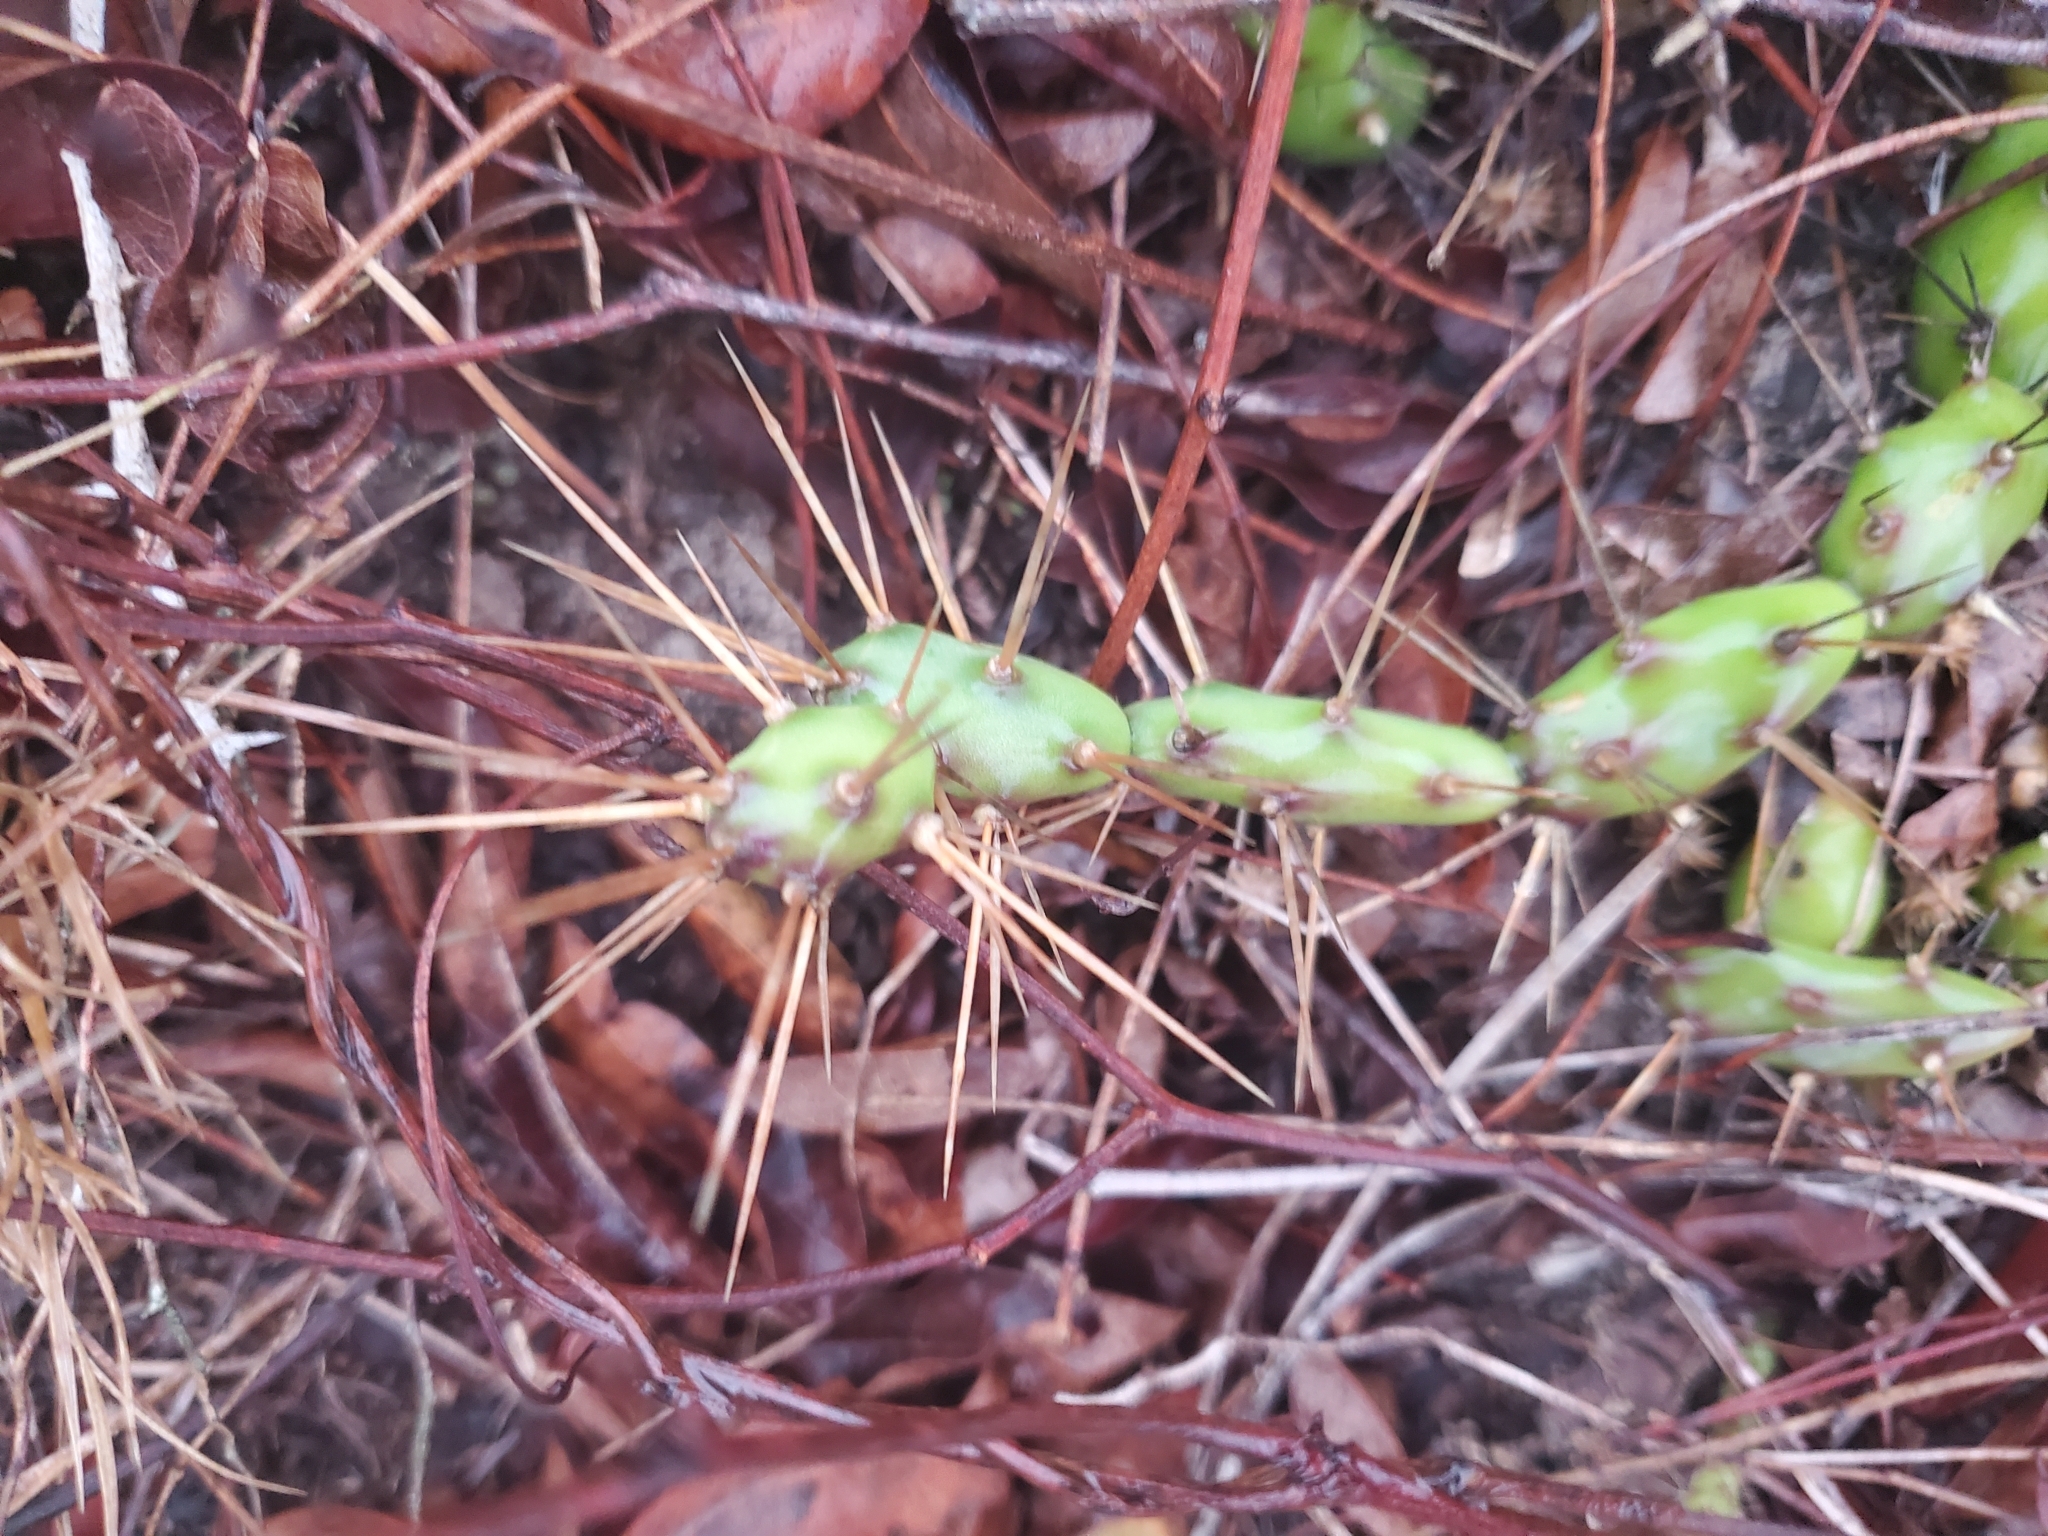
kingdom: Plantae
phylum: Tracheophyta
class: Magnoliopsida
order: Caryophyllales
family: Cactaceae
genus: Opuntia
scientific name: Opuntia drummondii
